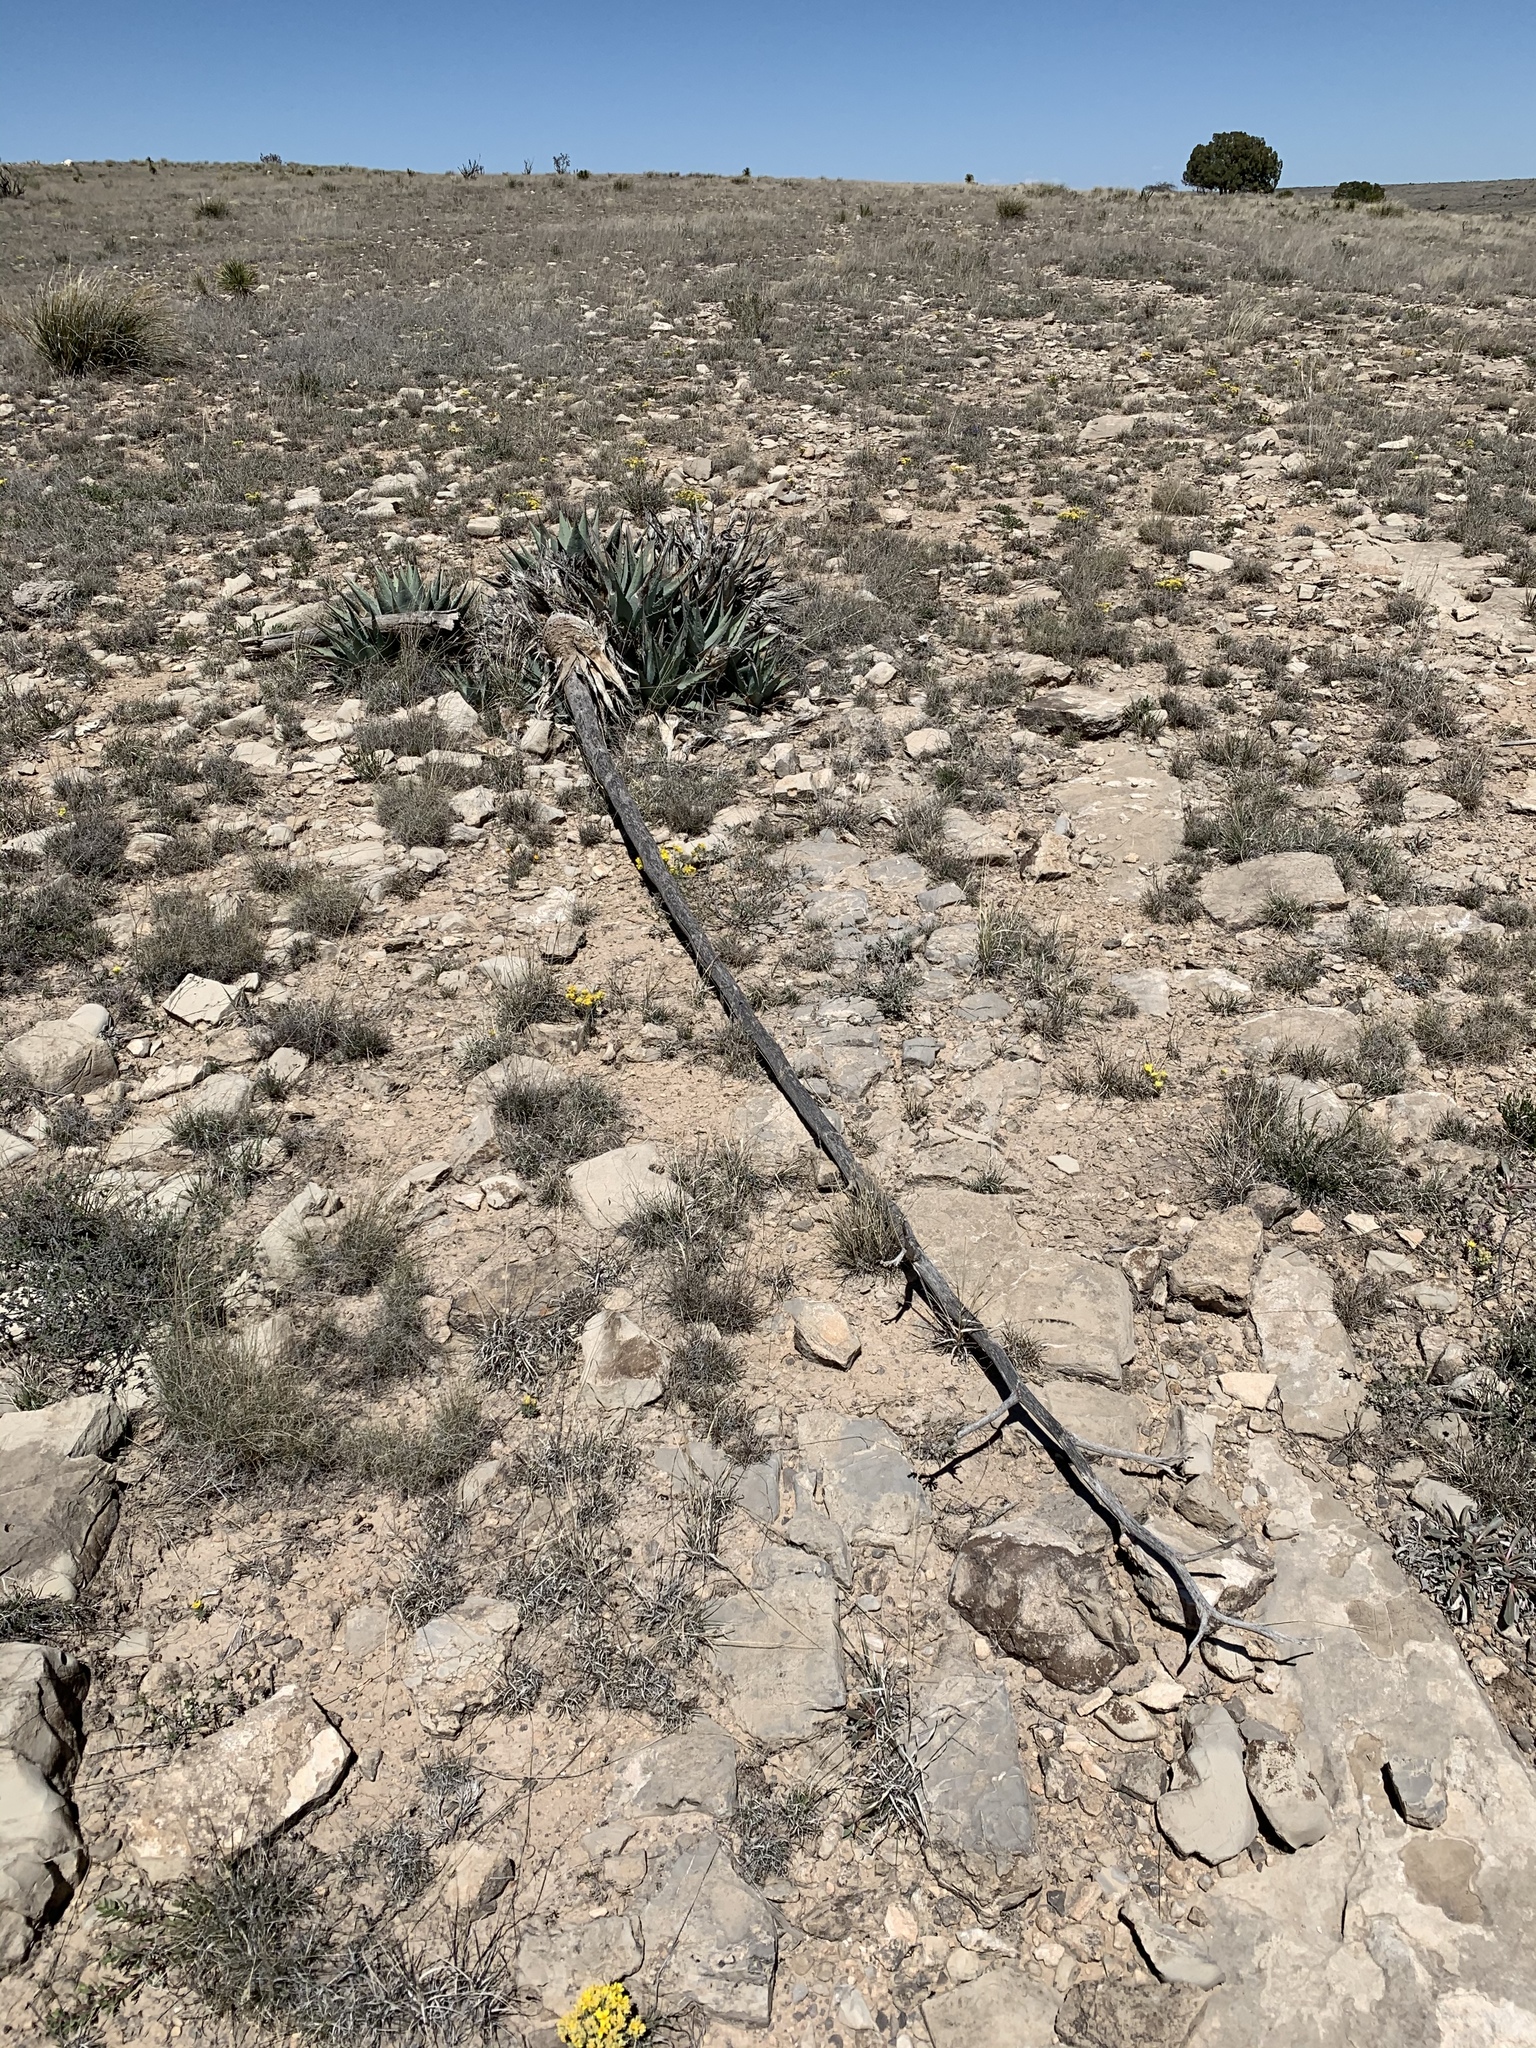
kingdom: Plantae
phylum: Tracheophyta
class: Liliopsida
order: Asparagales
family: Asparagaceae
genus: Agave
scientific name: Agave parryi
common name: Parry's agave
